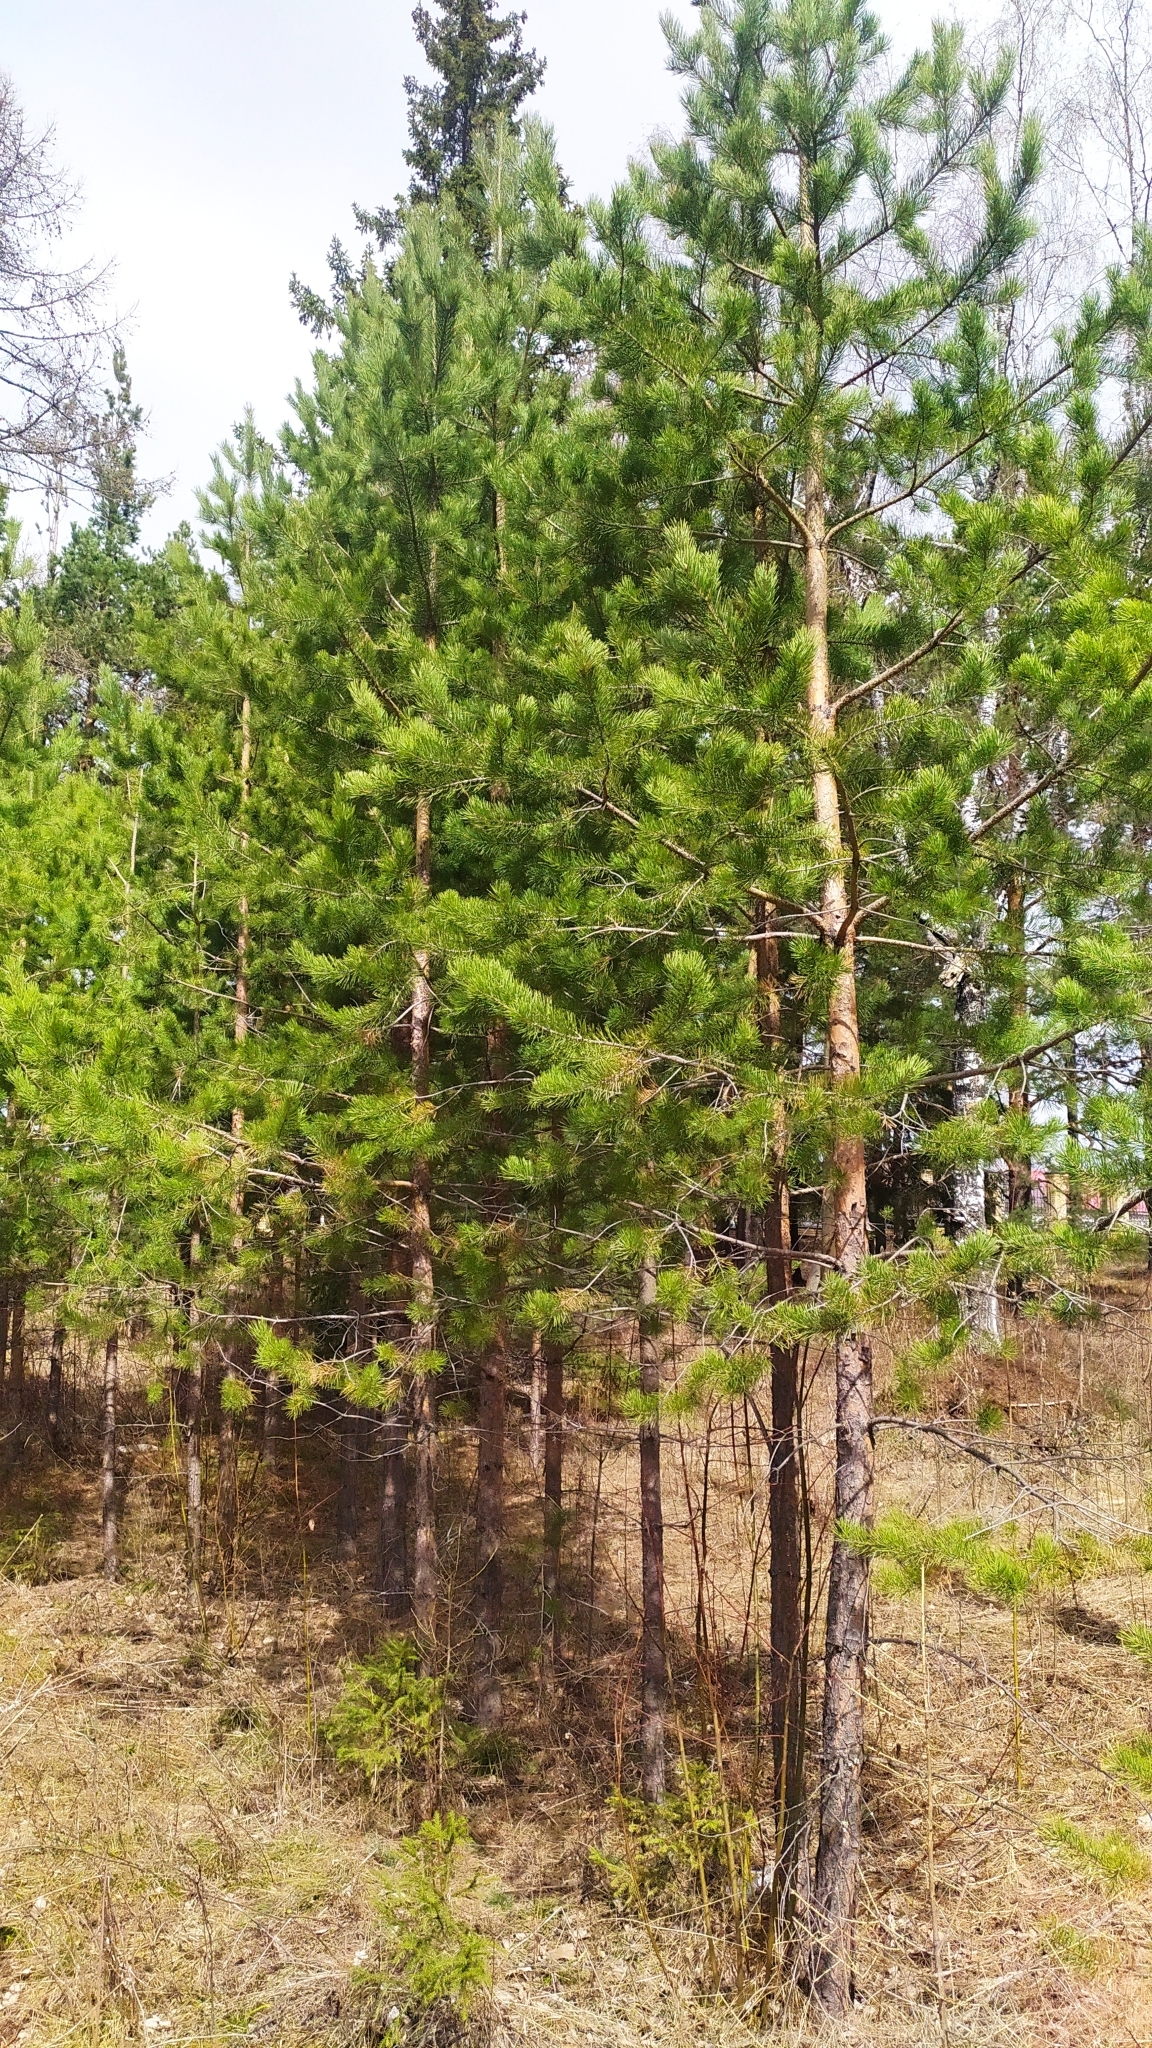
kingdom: Plantae
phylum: Tracheophyta
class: Pinopsida
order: Pinales
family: Pinaceae
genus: Pinus
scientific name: Pinus sylvestris
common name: Scots pine
